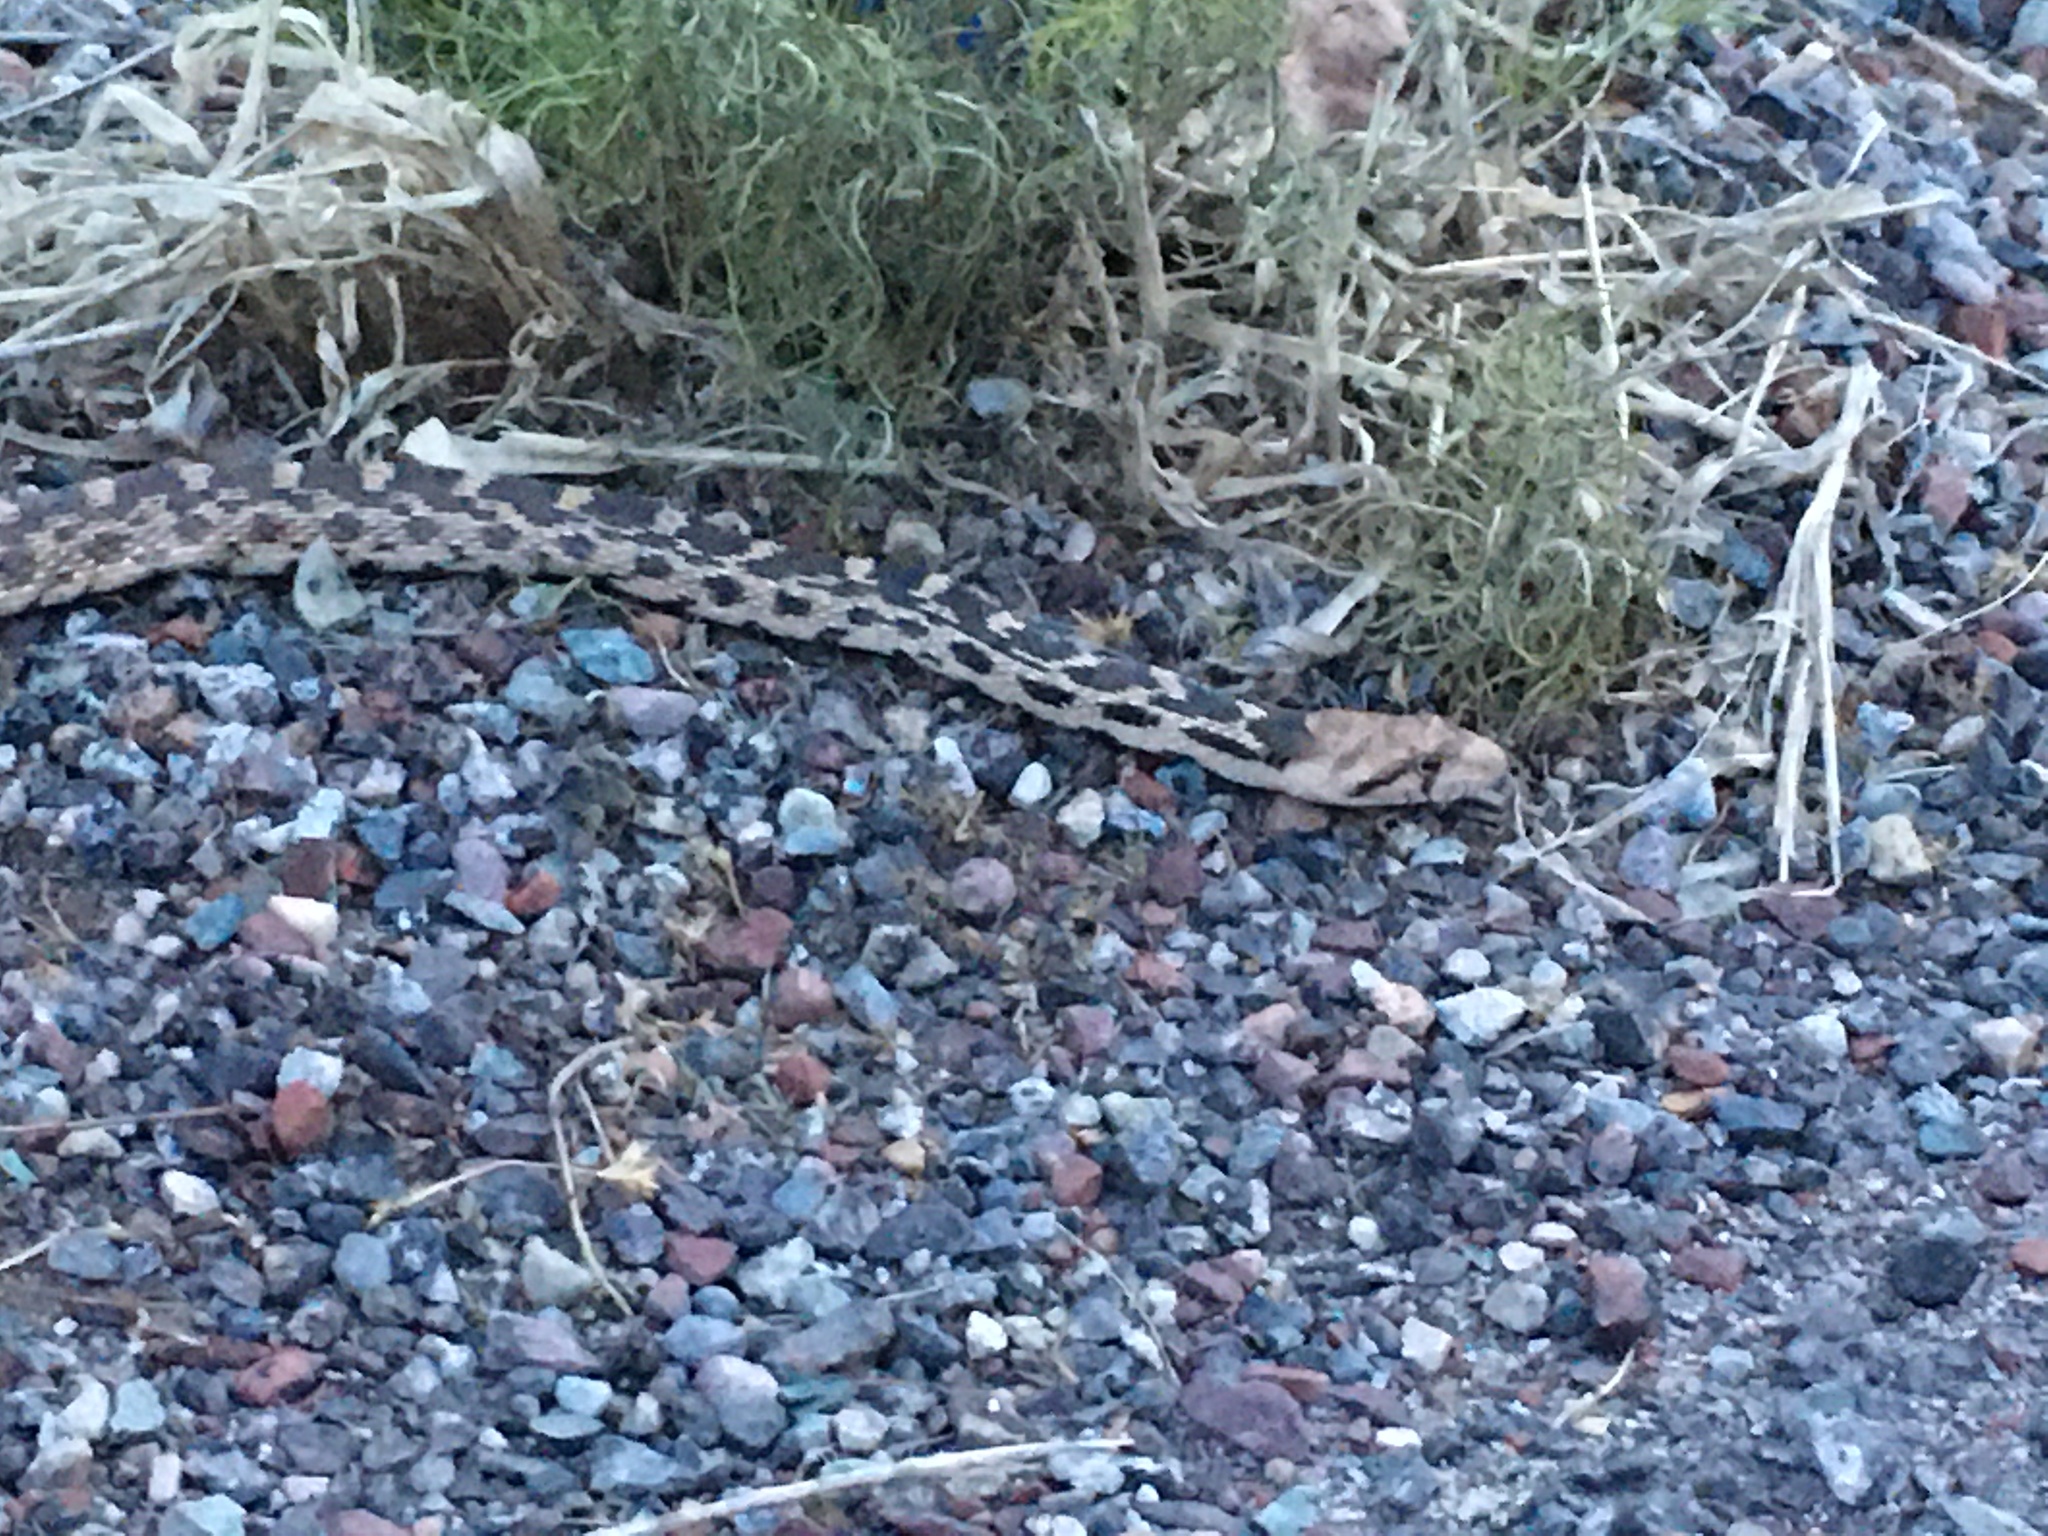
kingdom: Animalia
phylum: Chordata
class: Squamata
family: Colubridae
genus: Pituophis
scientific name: Pituophis catenifer
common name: Gopher snake
